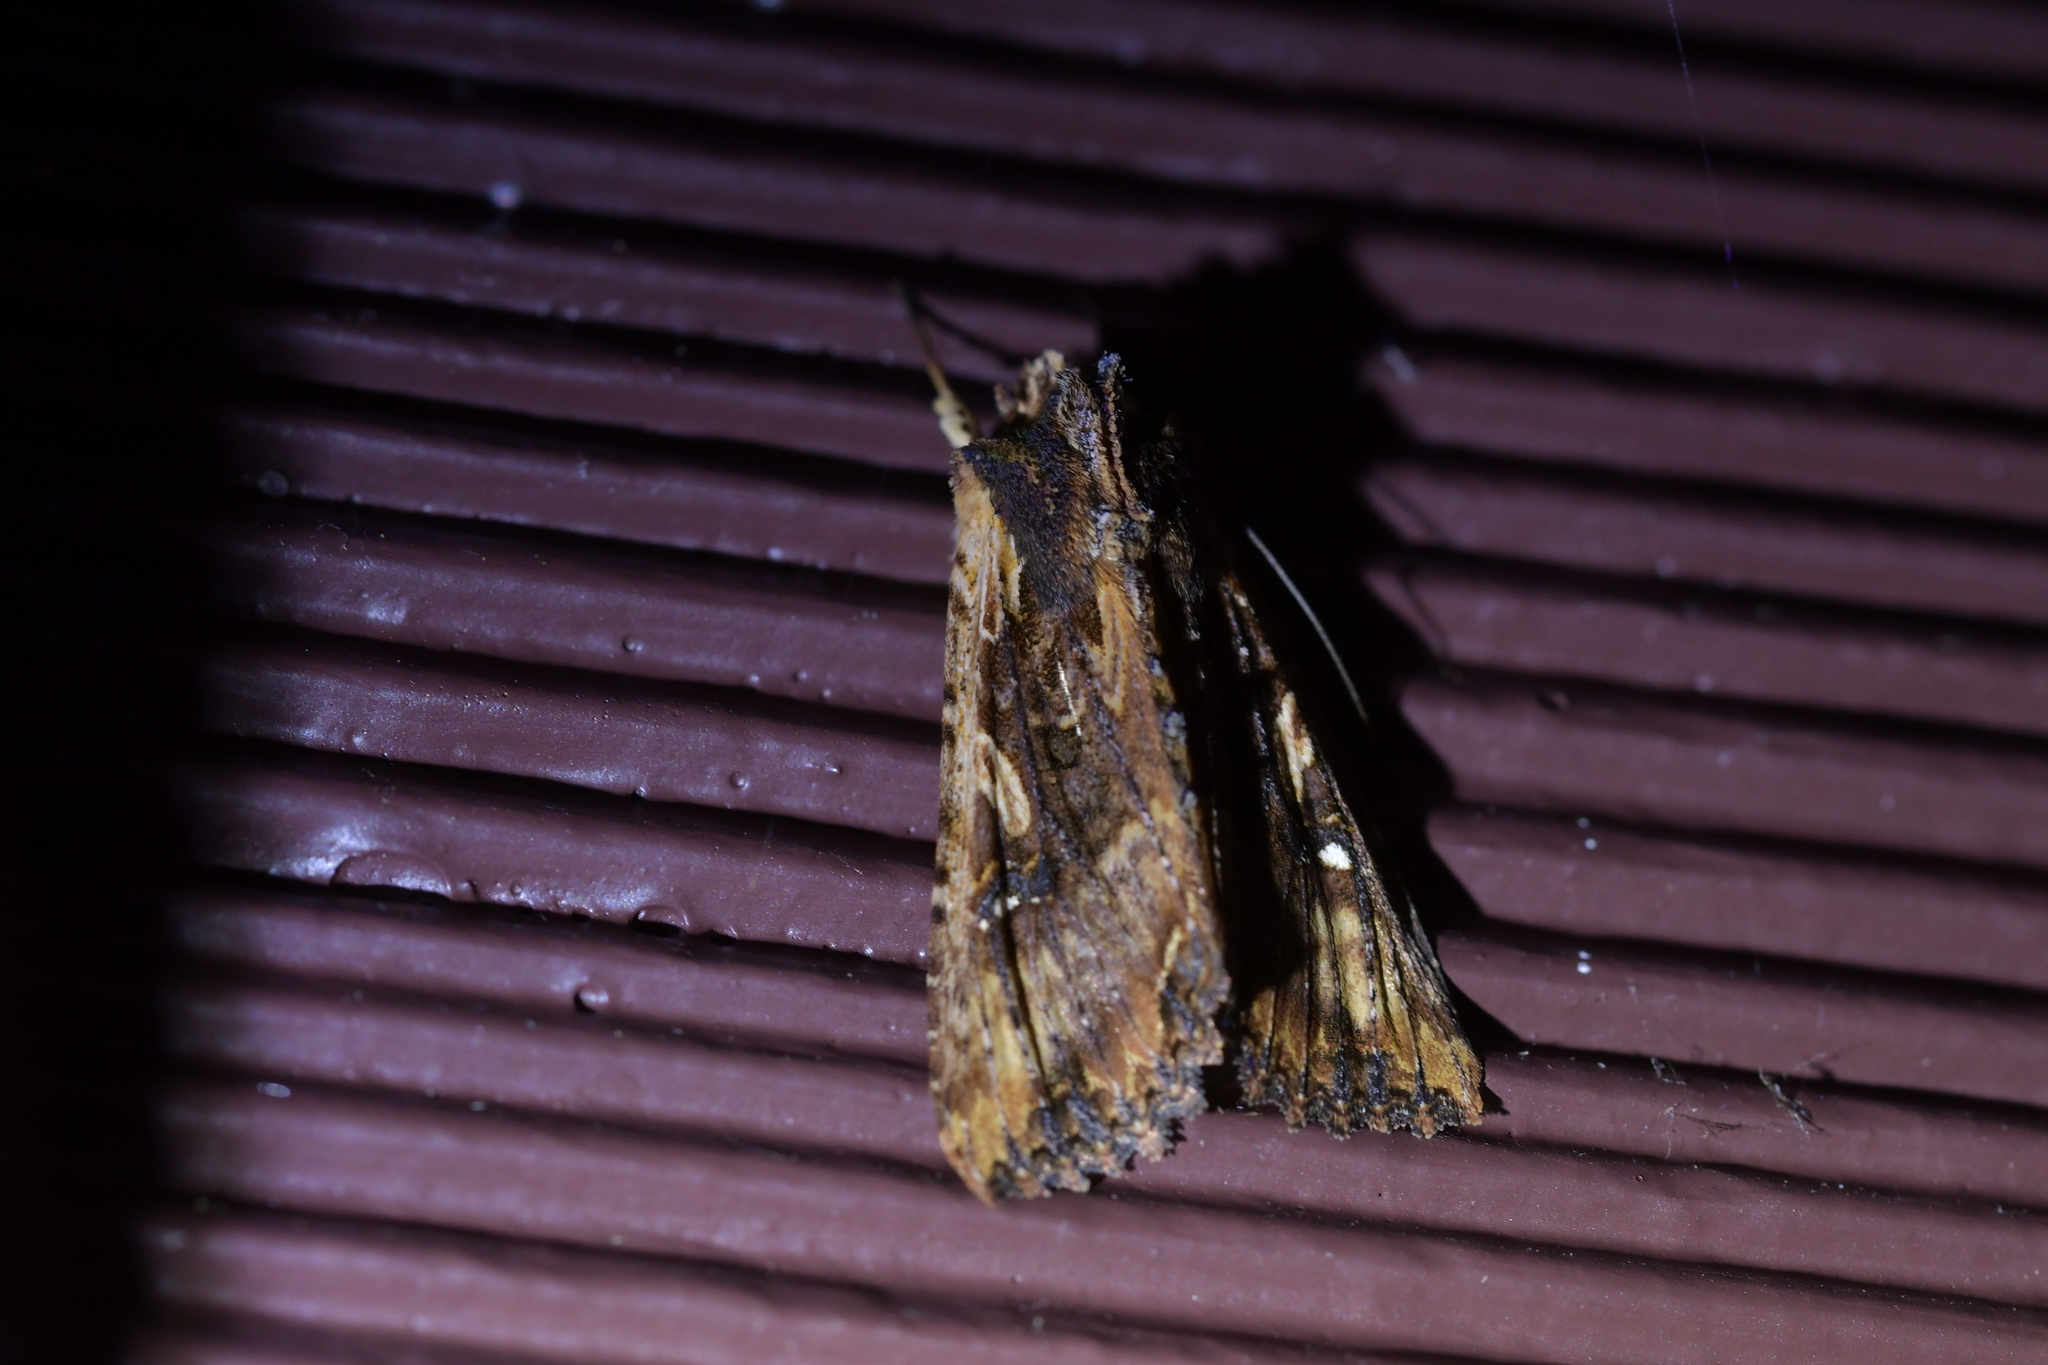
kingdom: Animalia
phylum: Arthropoda
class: Insecta
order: Lepidoptera
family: Noctuidae
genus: Meterana
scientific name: Meterana stipata
